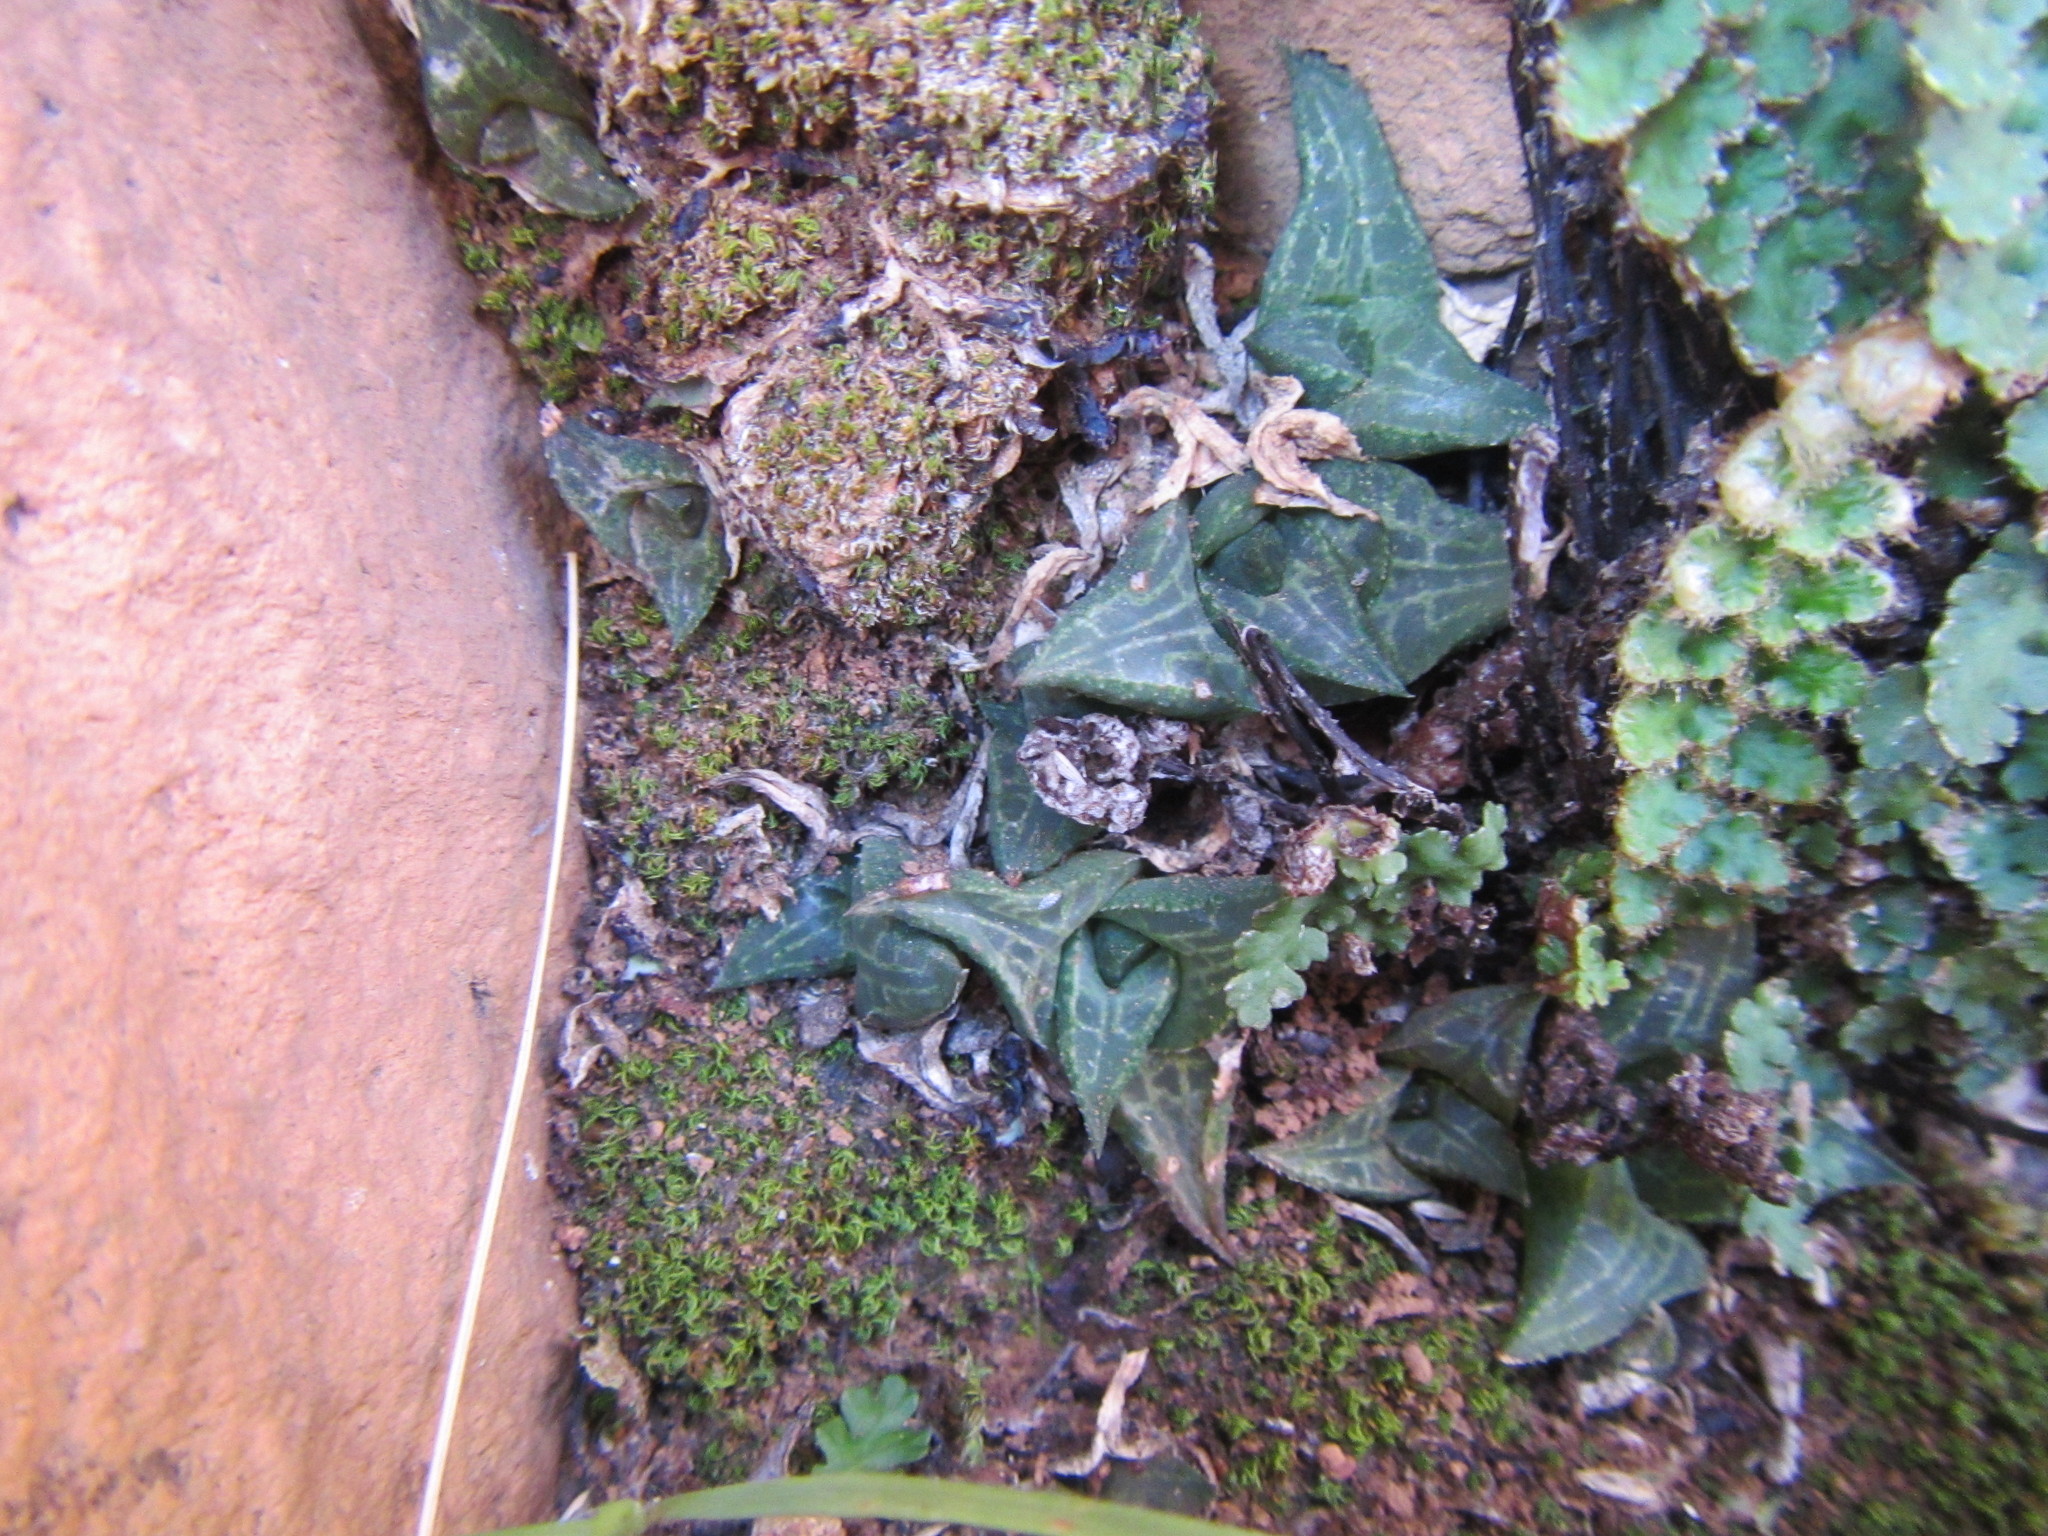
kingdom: Plantae
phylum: Tracheophyta
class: Liliopsida
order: Asparagales
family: Asphodelaceae
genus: Haworthiopsis
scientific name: Haworthiopsis tessellata
